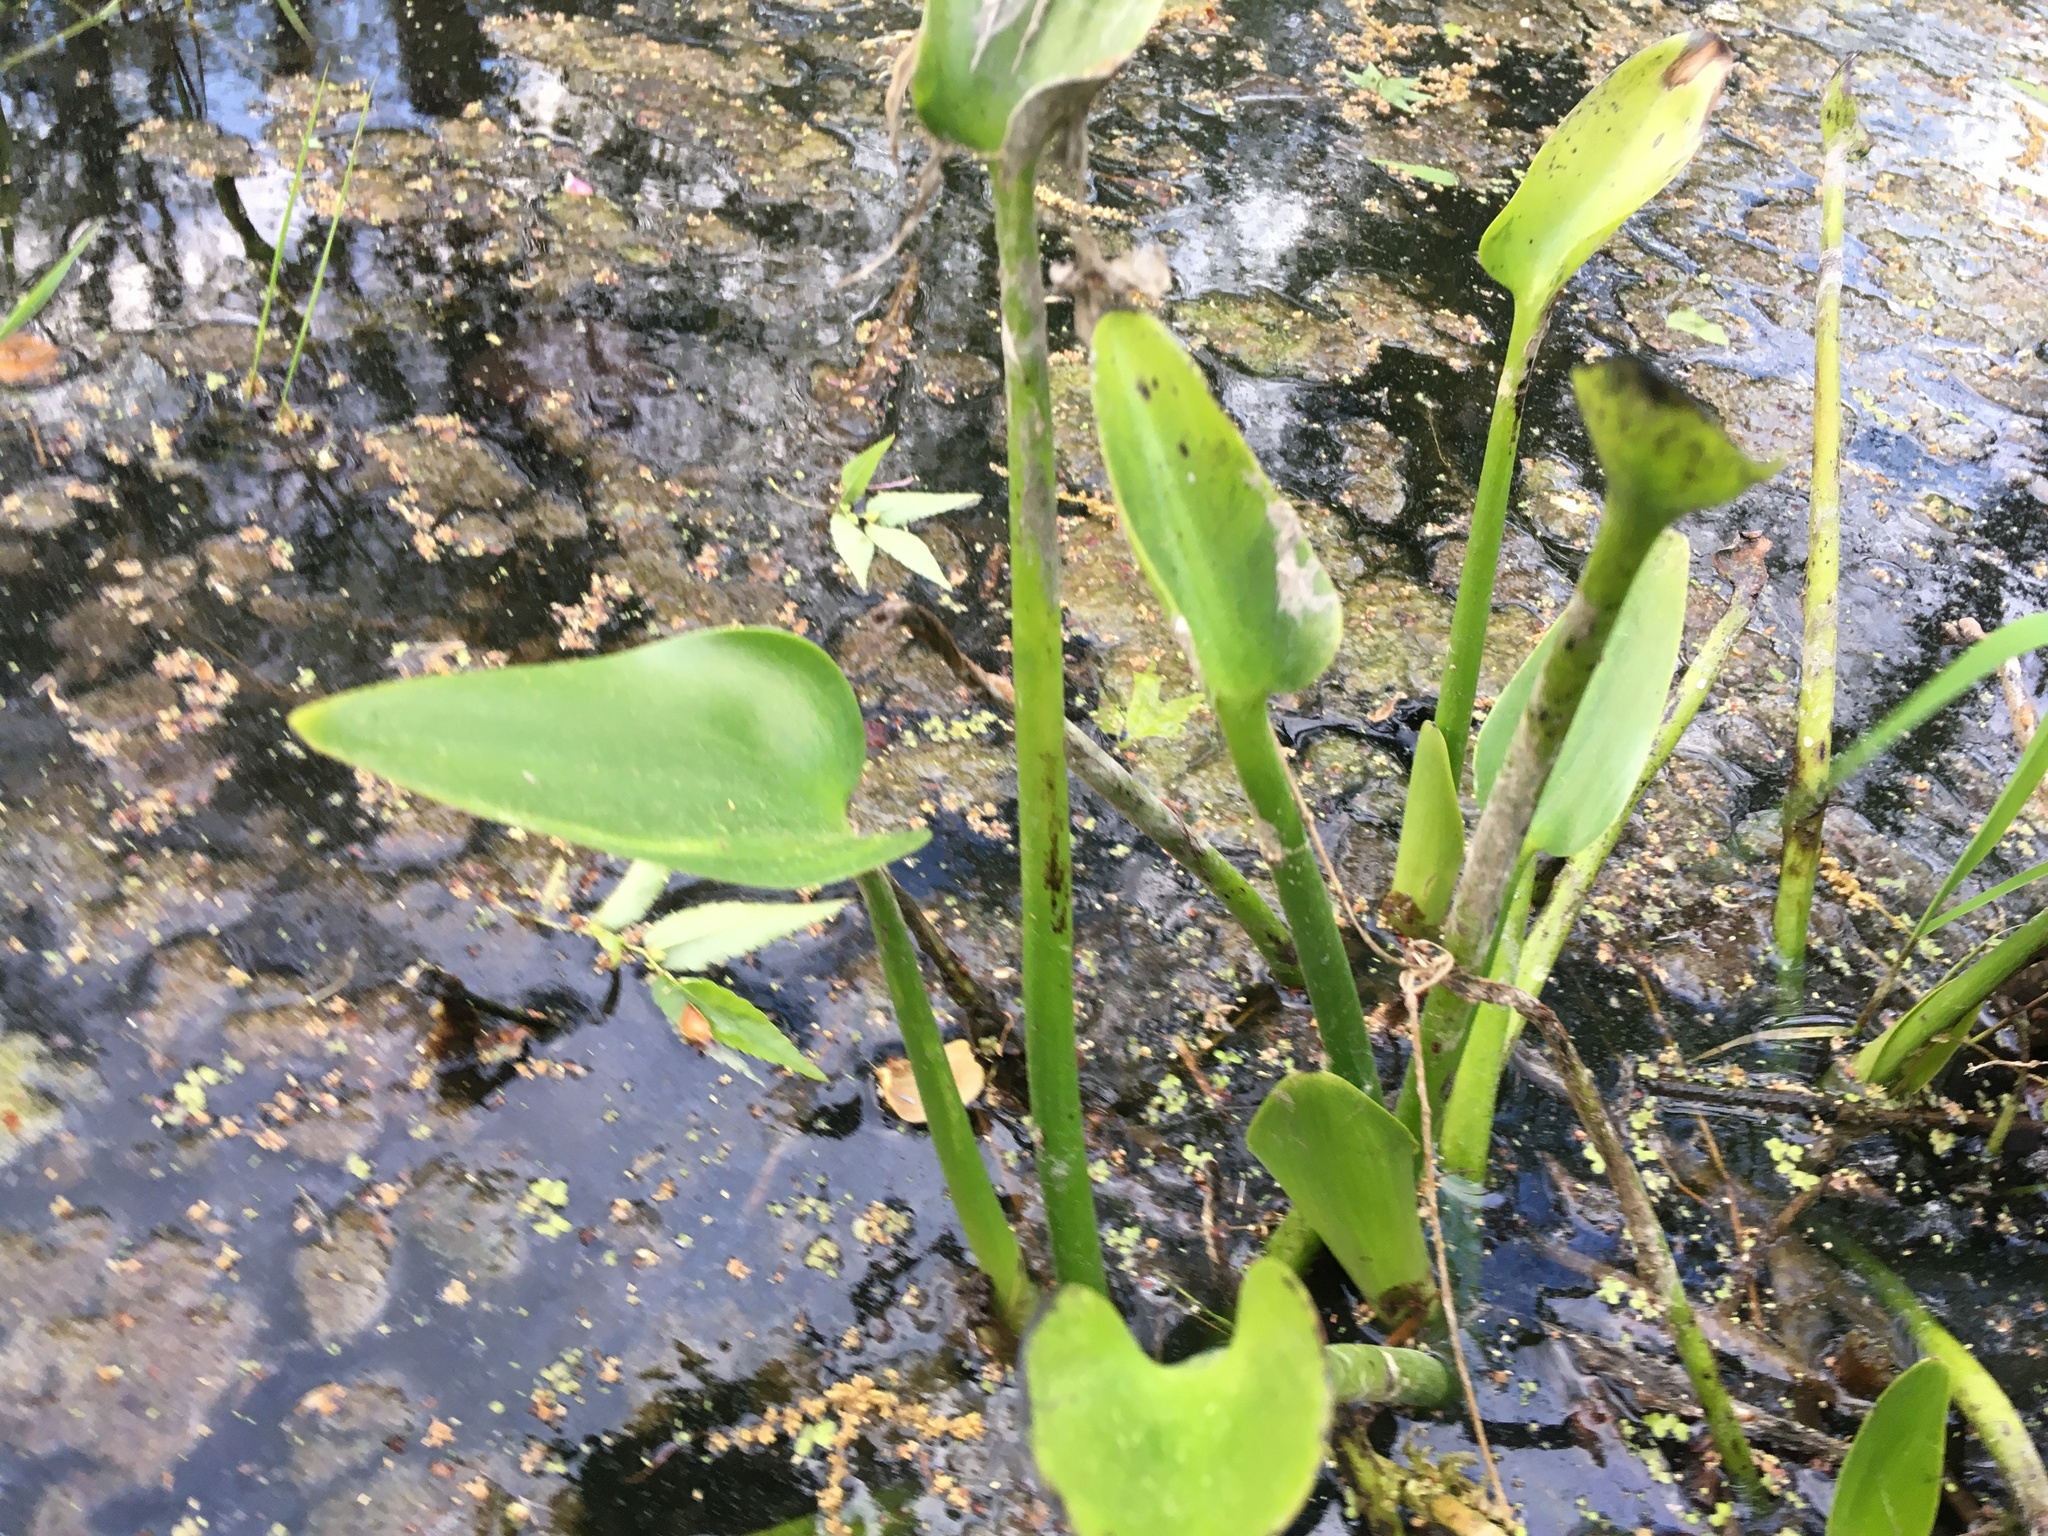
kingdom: Plantae
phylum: Tracheophyta
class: Liliopsida
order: Commelinales
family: Pontederiaceae
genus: Pontederia
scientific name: Pontederia cordata
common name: Pickerelweed
